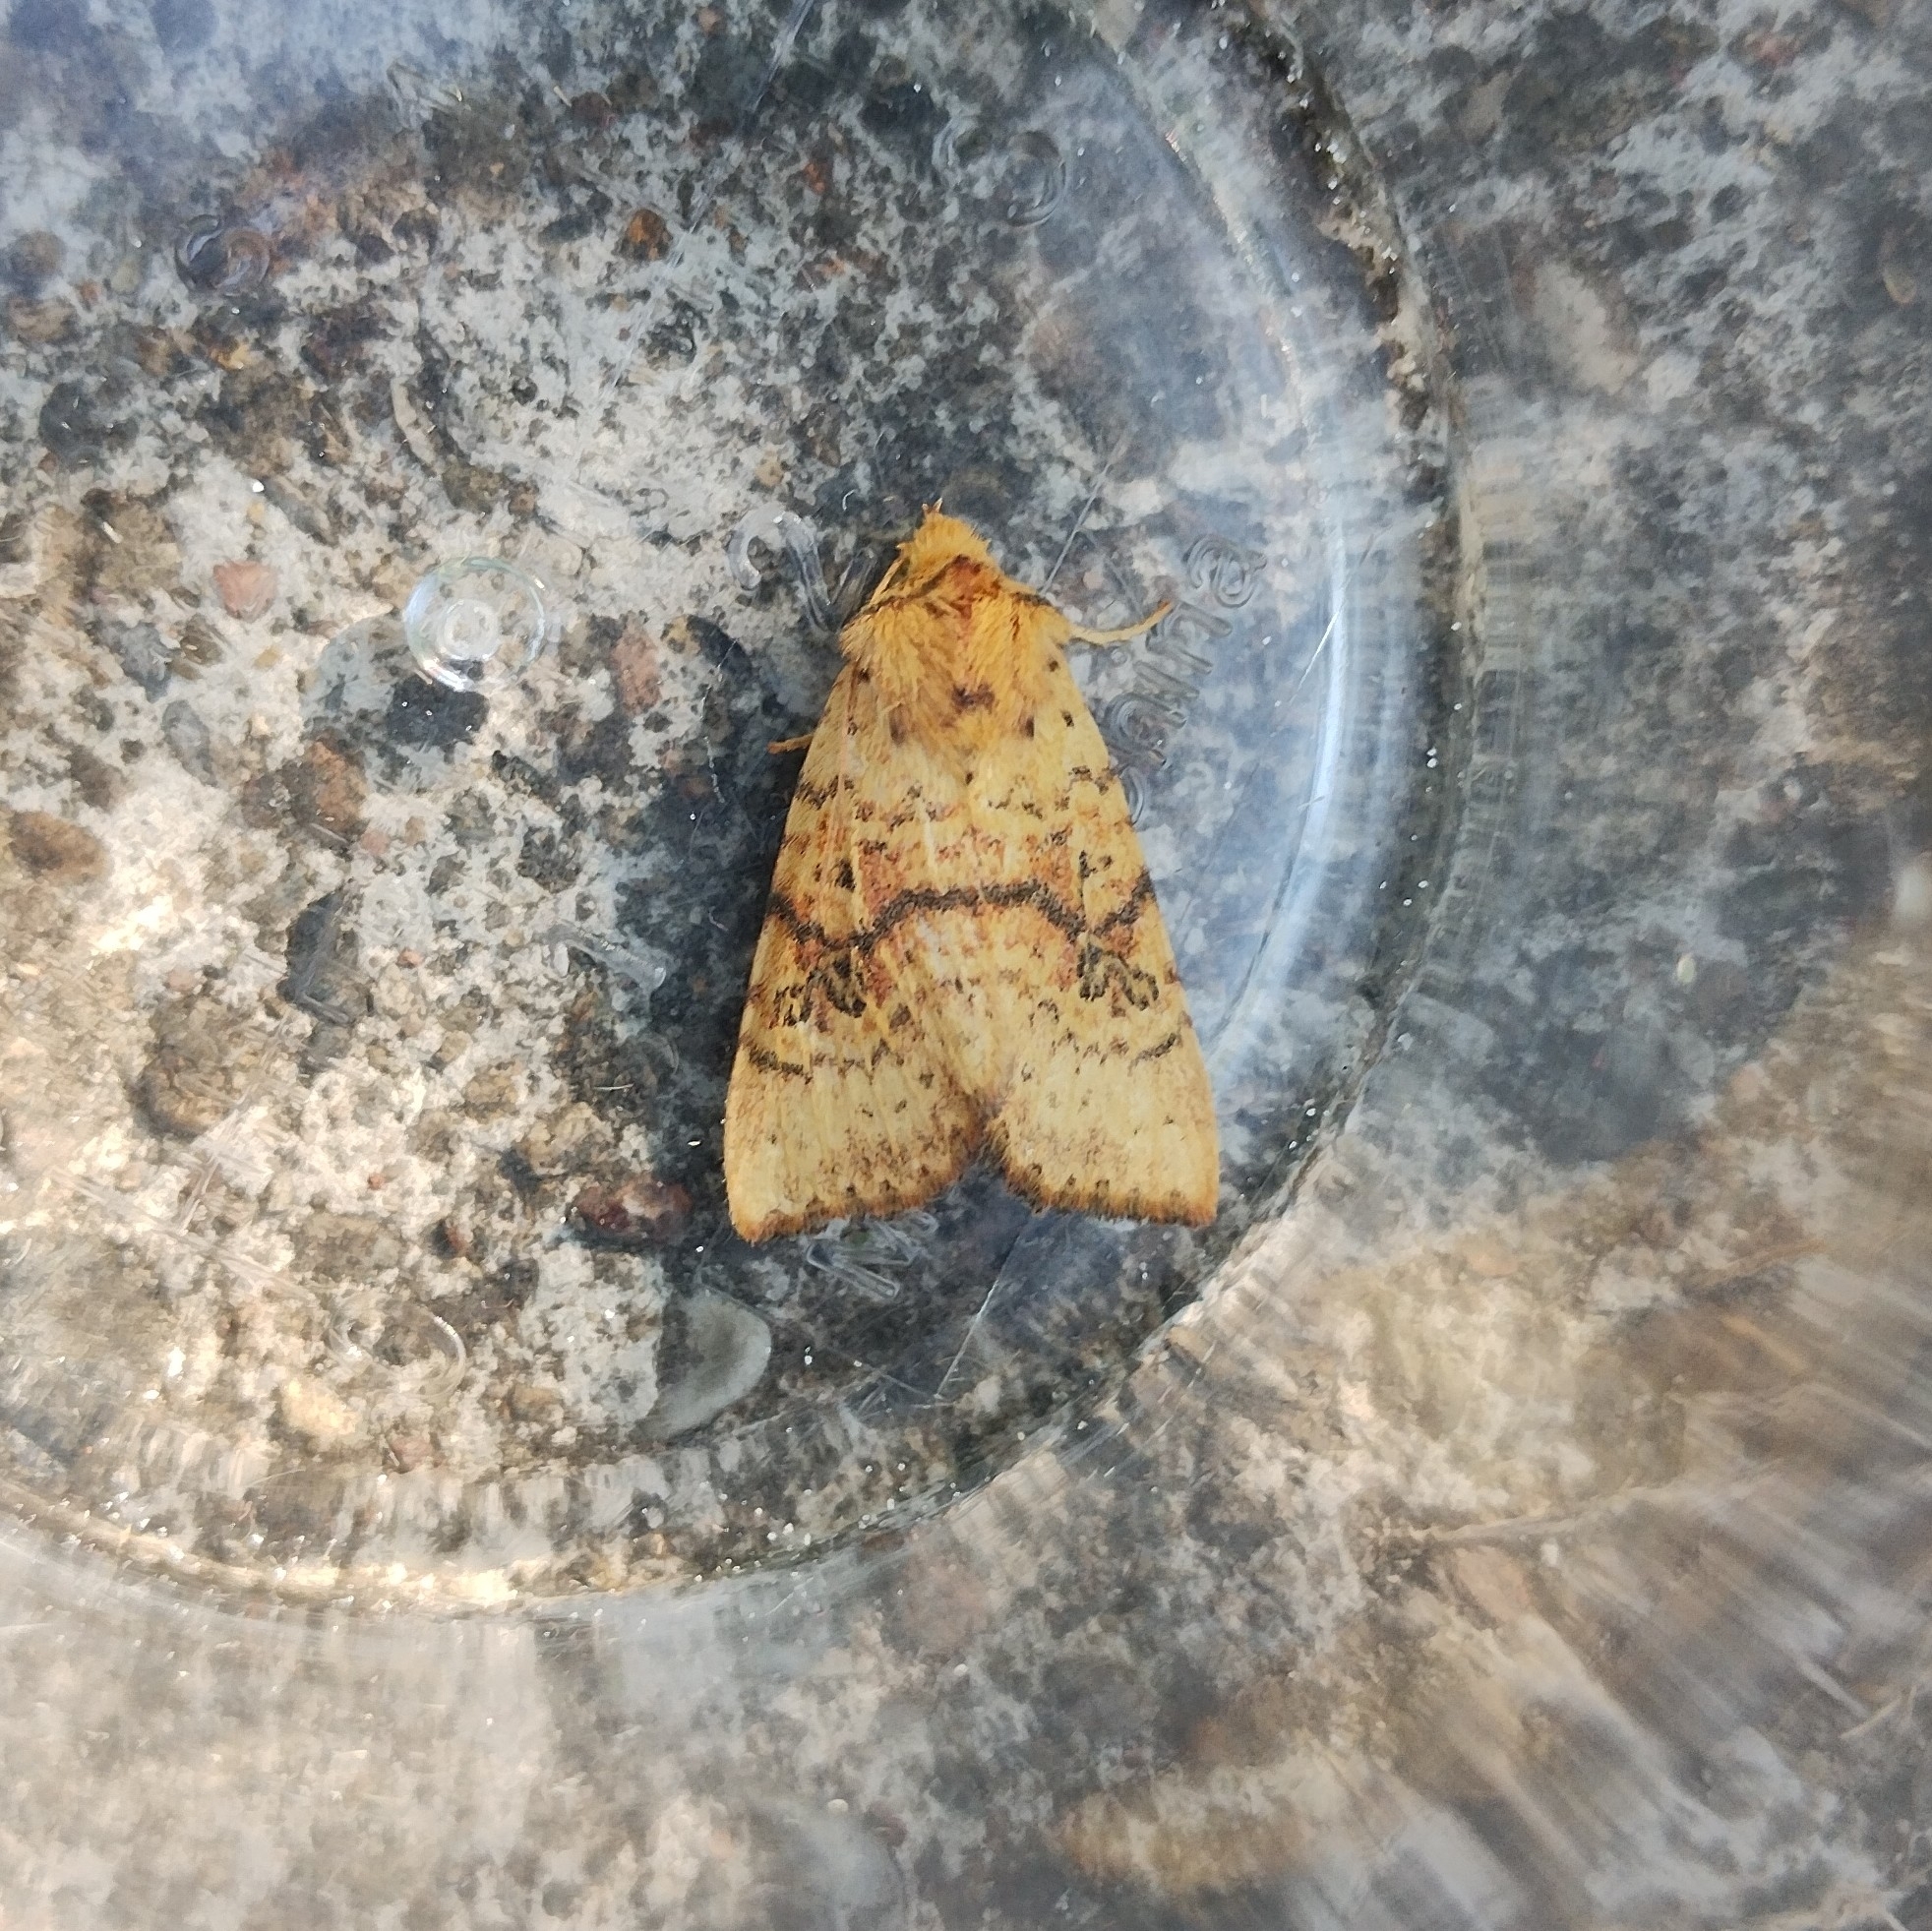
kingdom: Animalia
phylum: Arthropoda
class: Insecta
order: Lepidoptera
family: Noctuidae
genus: Tiliacea
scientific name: Tiliacea sulphurago
